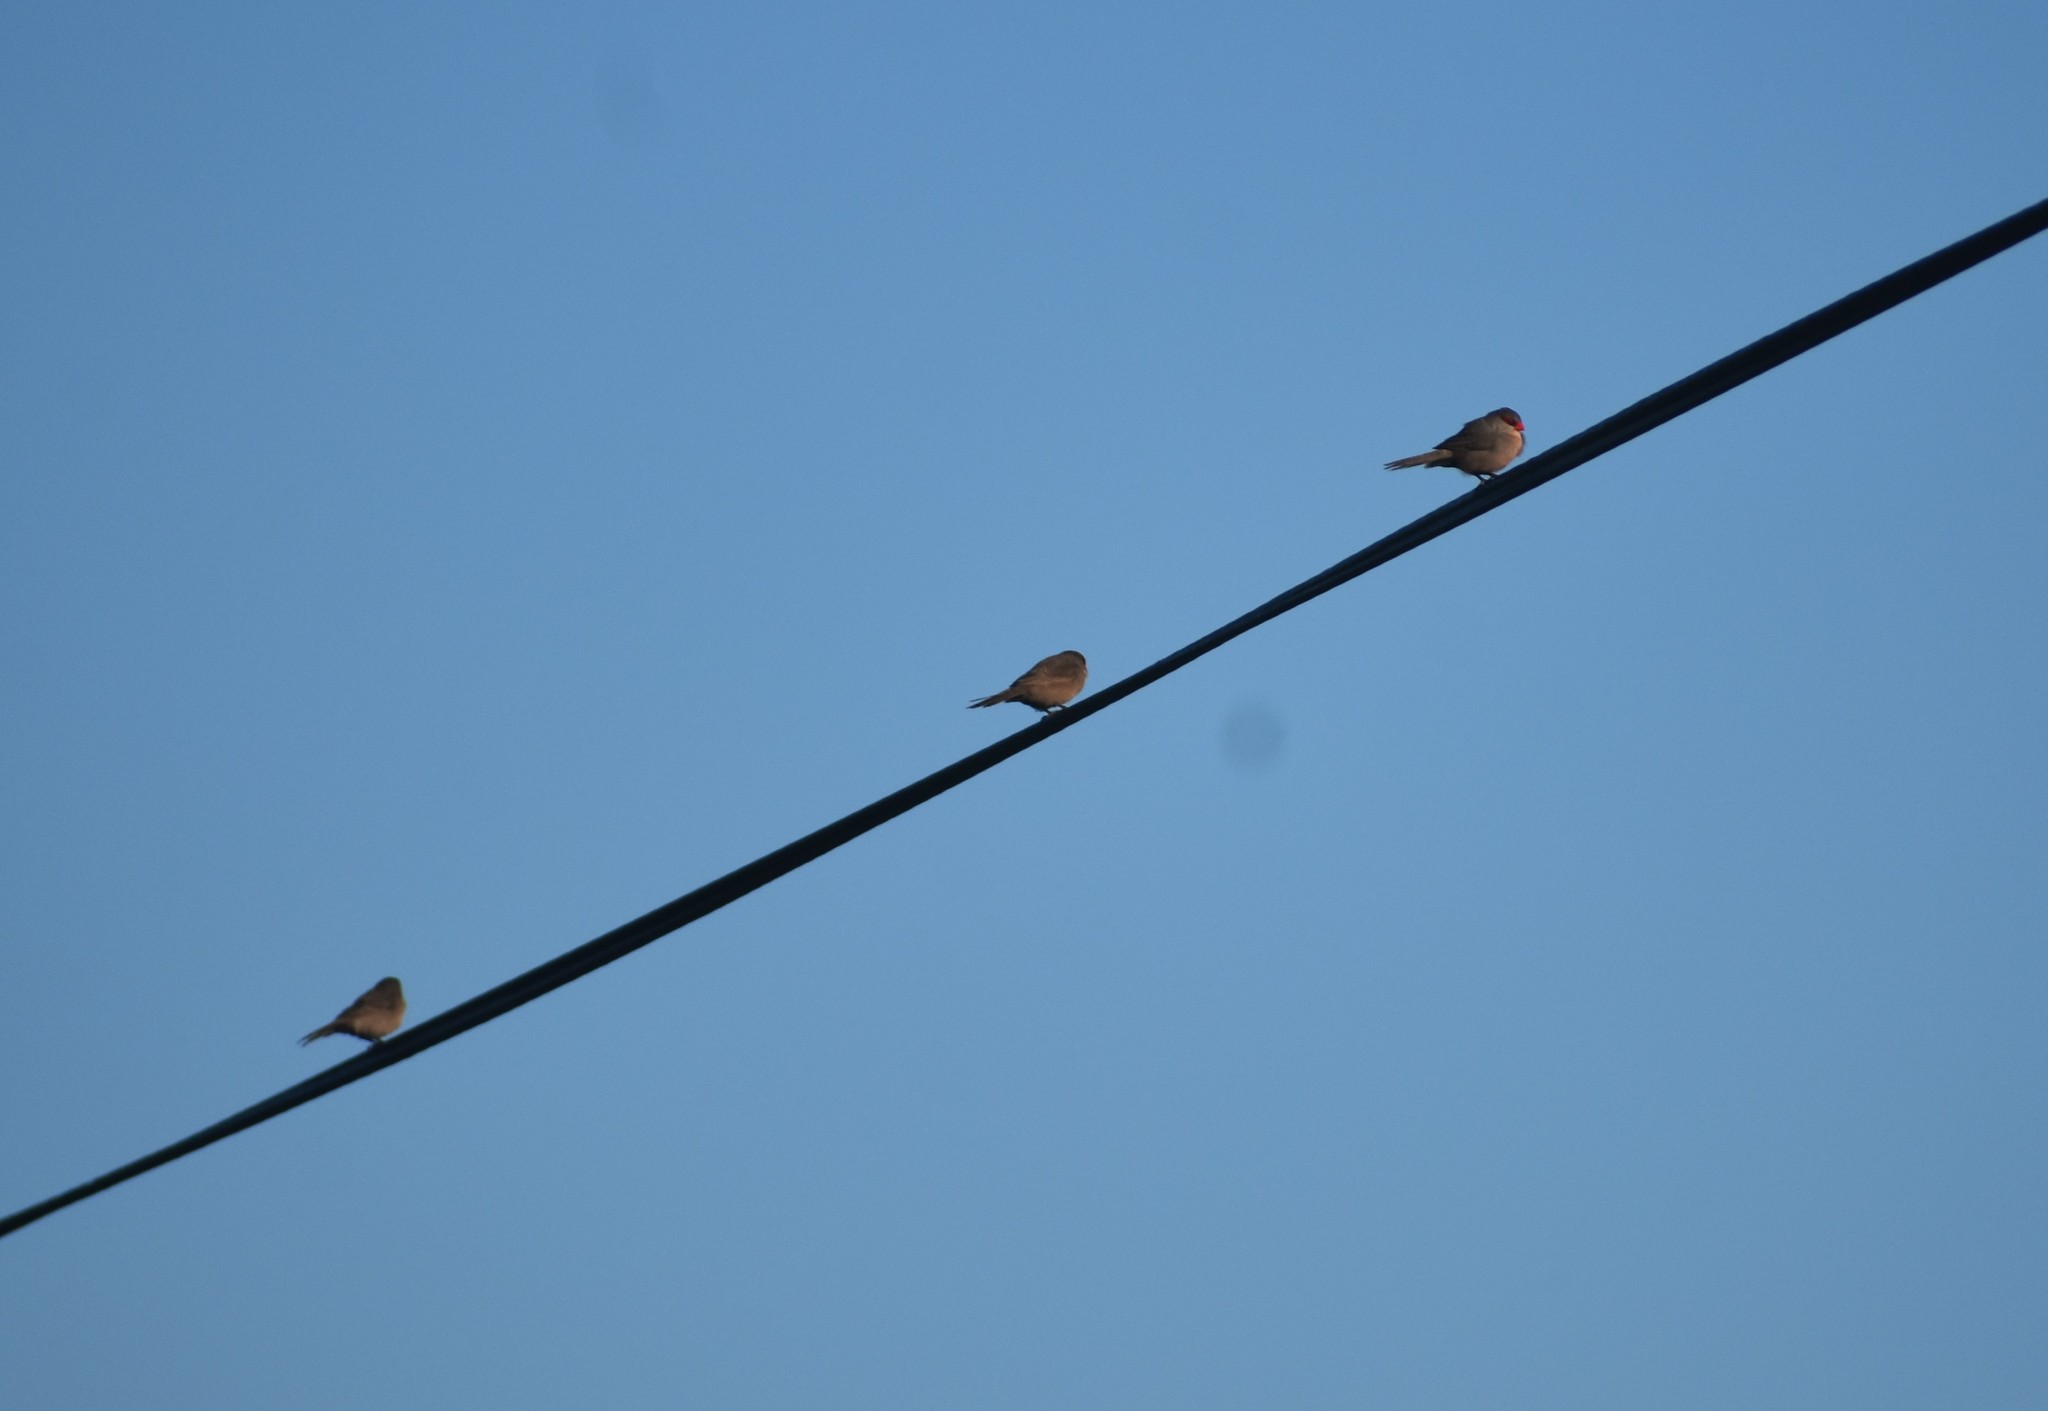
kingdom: Animalia
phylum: Chordata
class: Aves
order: Passeriformes
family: Estrildidae
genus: Estrilda
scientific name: Estrilda astrild
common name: Common waxbill
